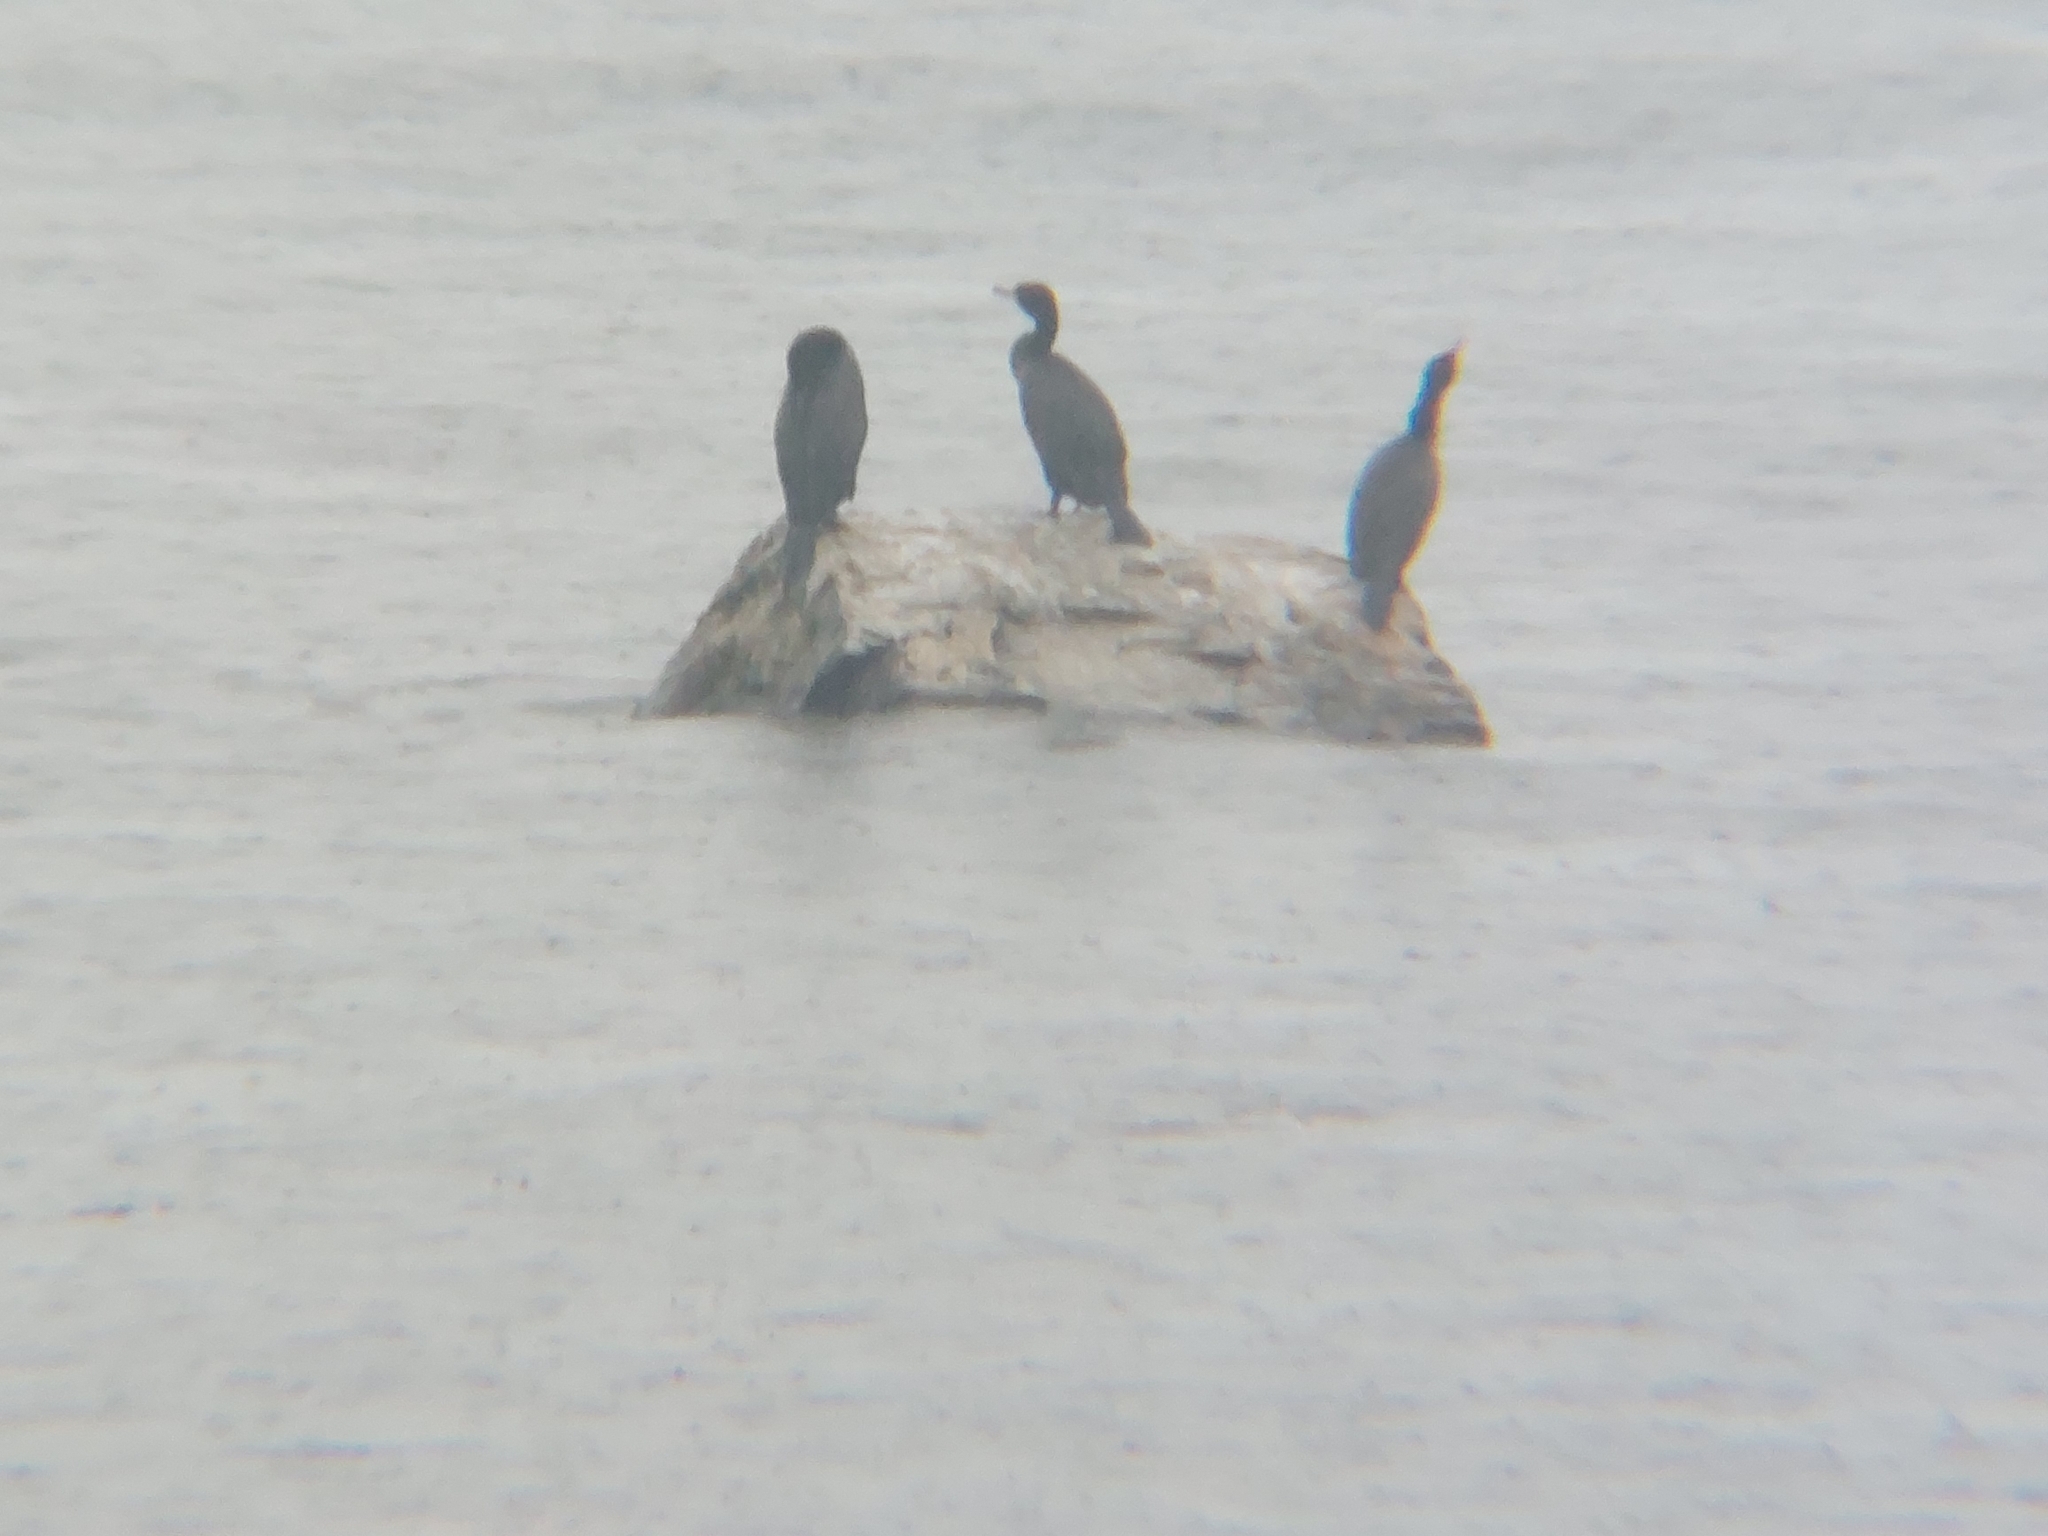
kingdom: Animalia
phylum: Chordata
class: Aves
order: Suliformes
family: Phalacrocoracidae
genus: Phalacrocorax
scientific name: Phalacrocorax carbo
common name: Great cormorant
